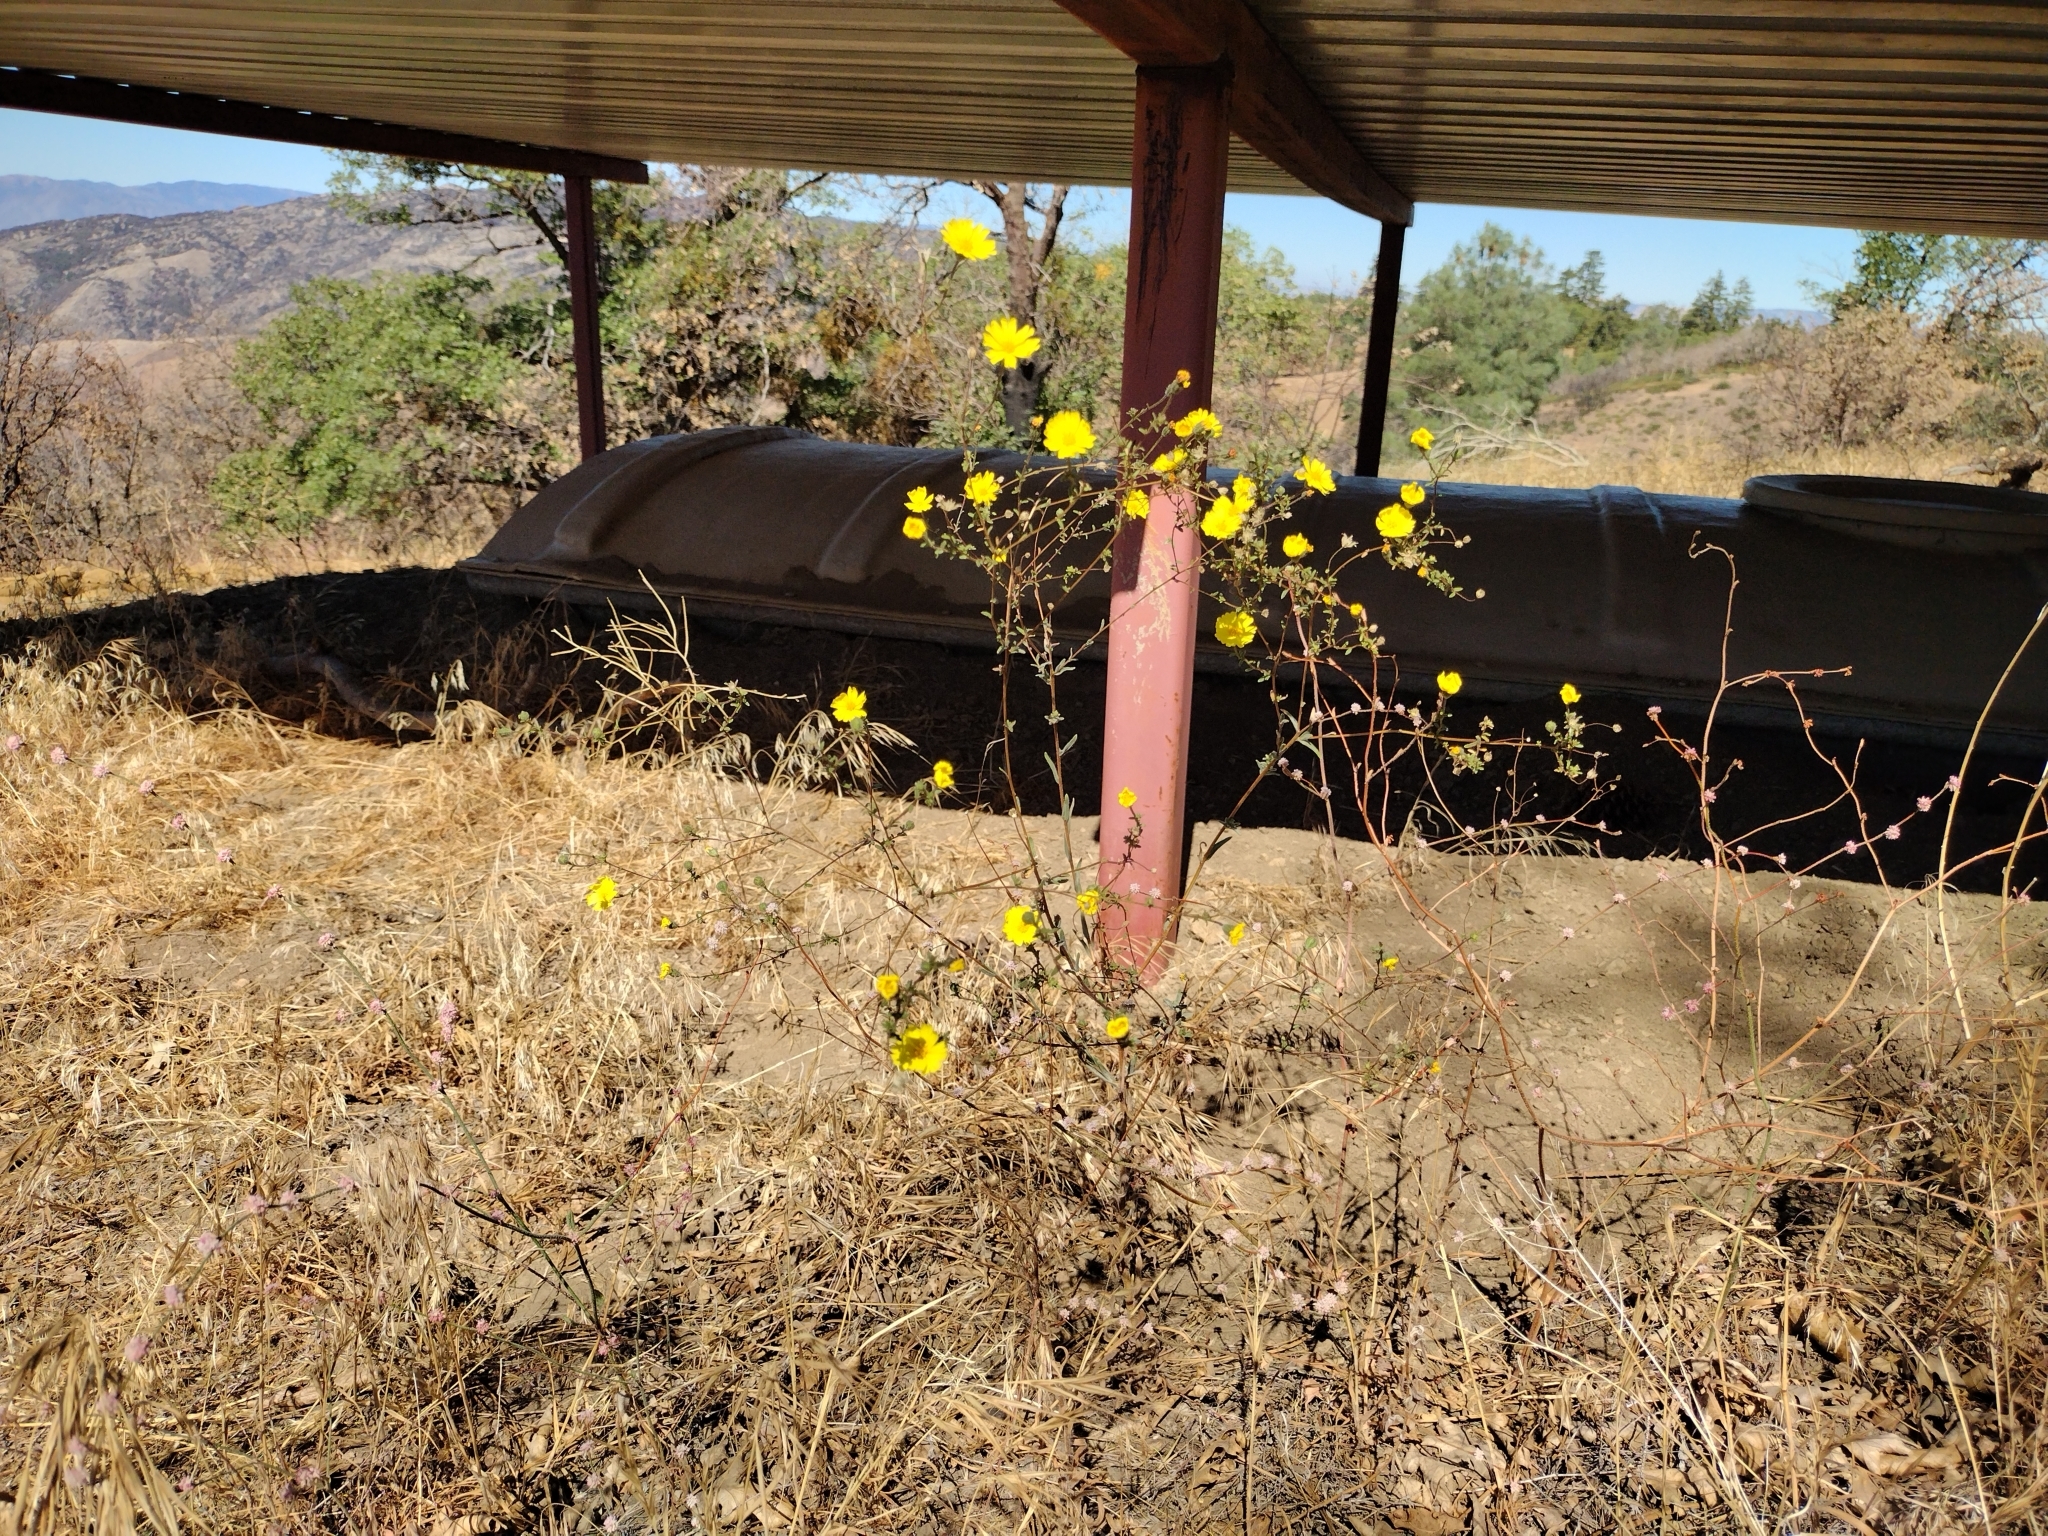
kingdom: Plantae
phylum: Tracheophyta
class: Magnoliopsida
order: Asterales
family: Asteraceae
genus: Madia
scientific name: Madia elegans
